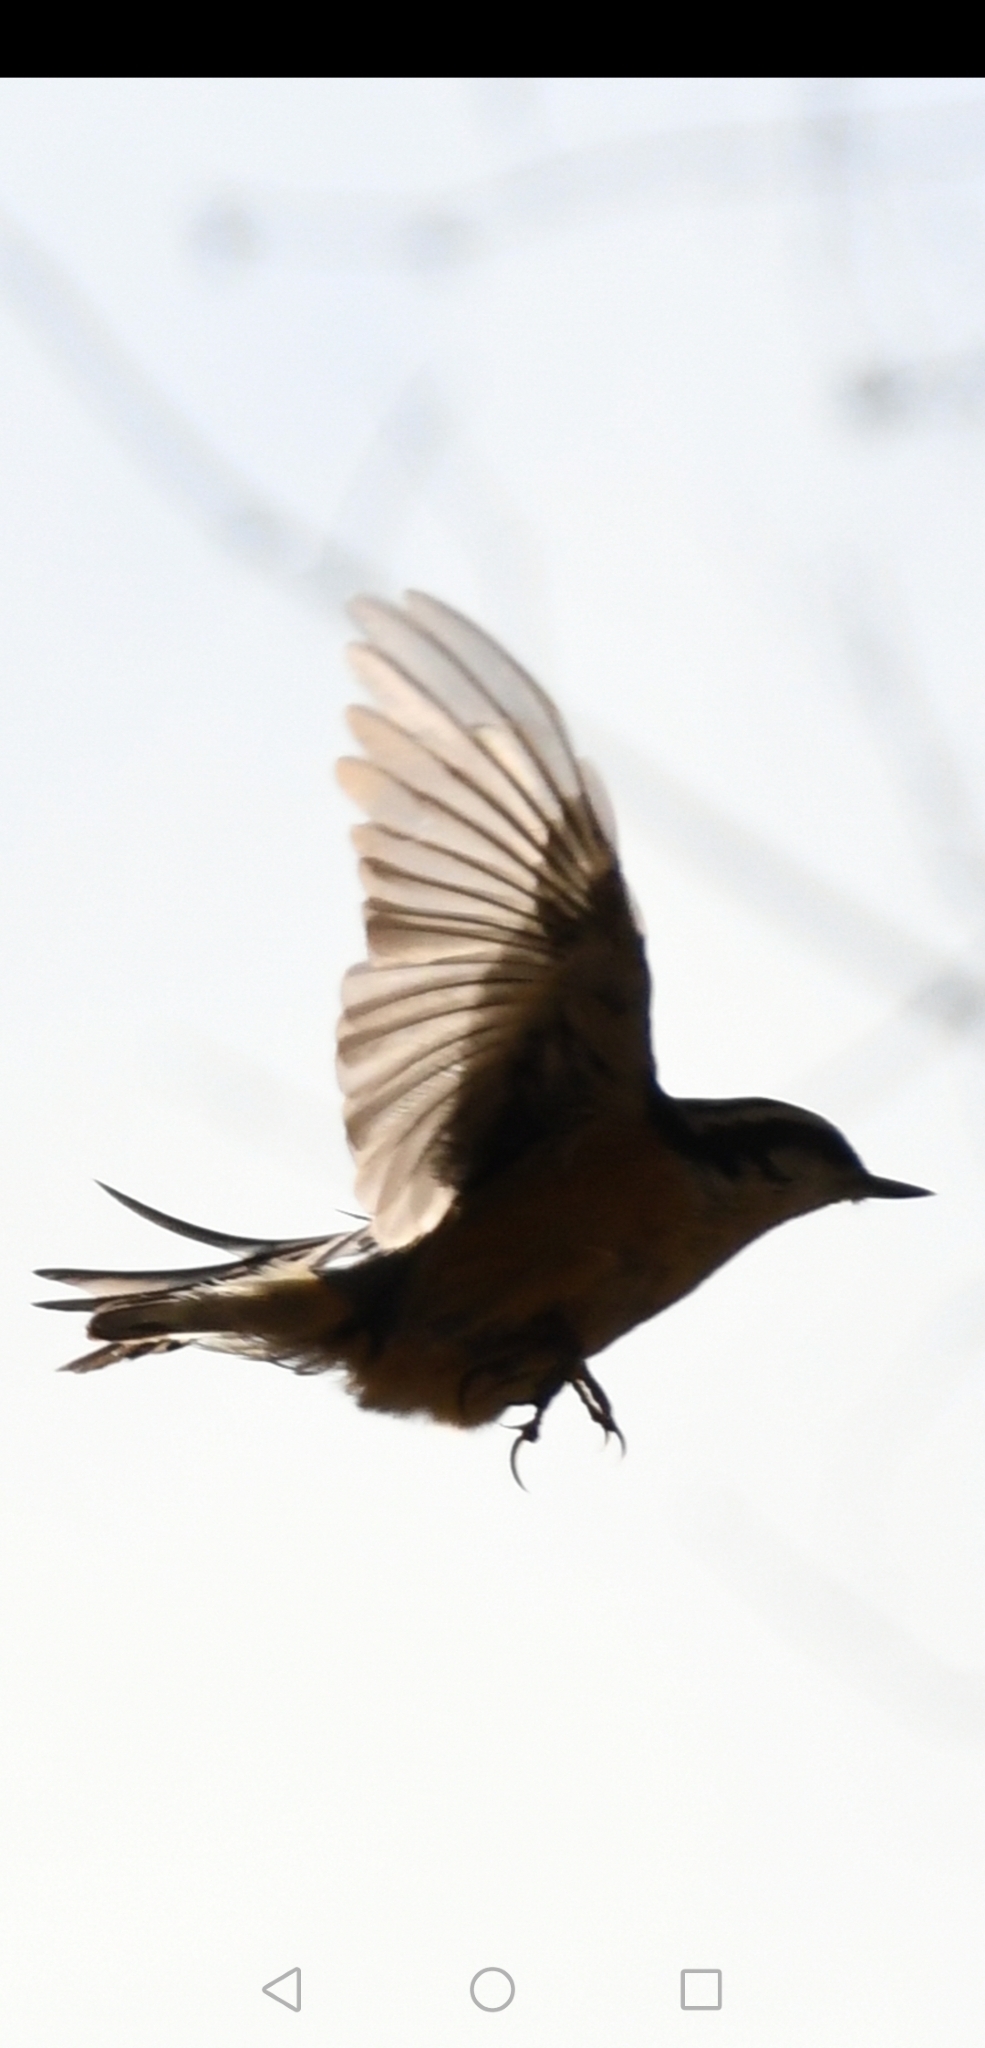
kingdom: Animalia
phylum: Chordata
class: Aves
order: Passeriformes
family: Sittidae
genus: Sitta
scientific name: Sitta canadensis
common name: Red-breasted nuthatch
